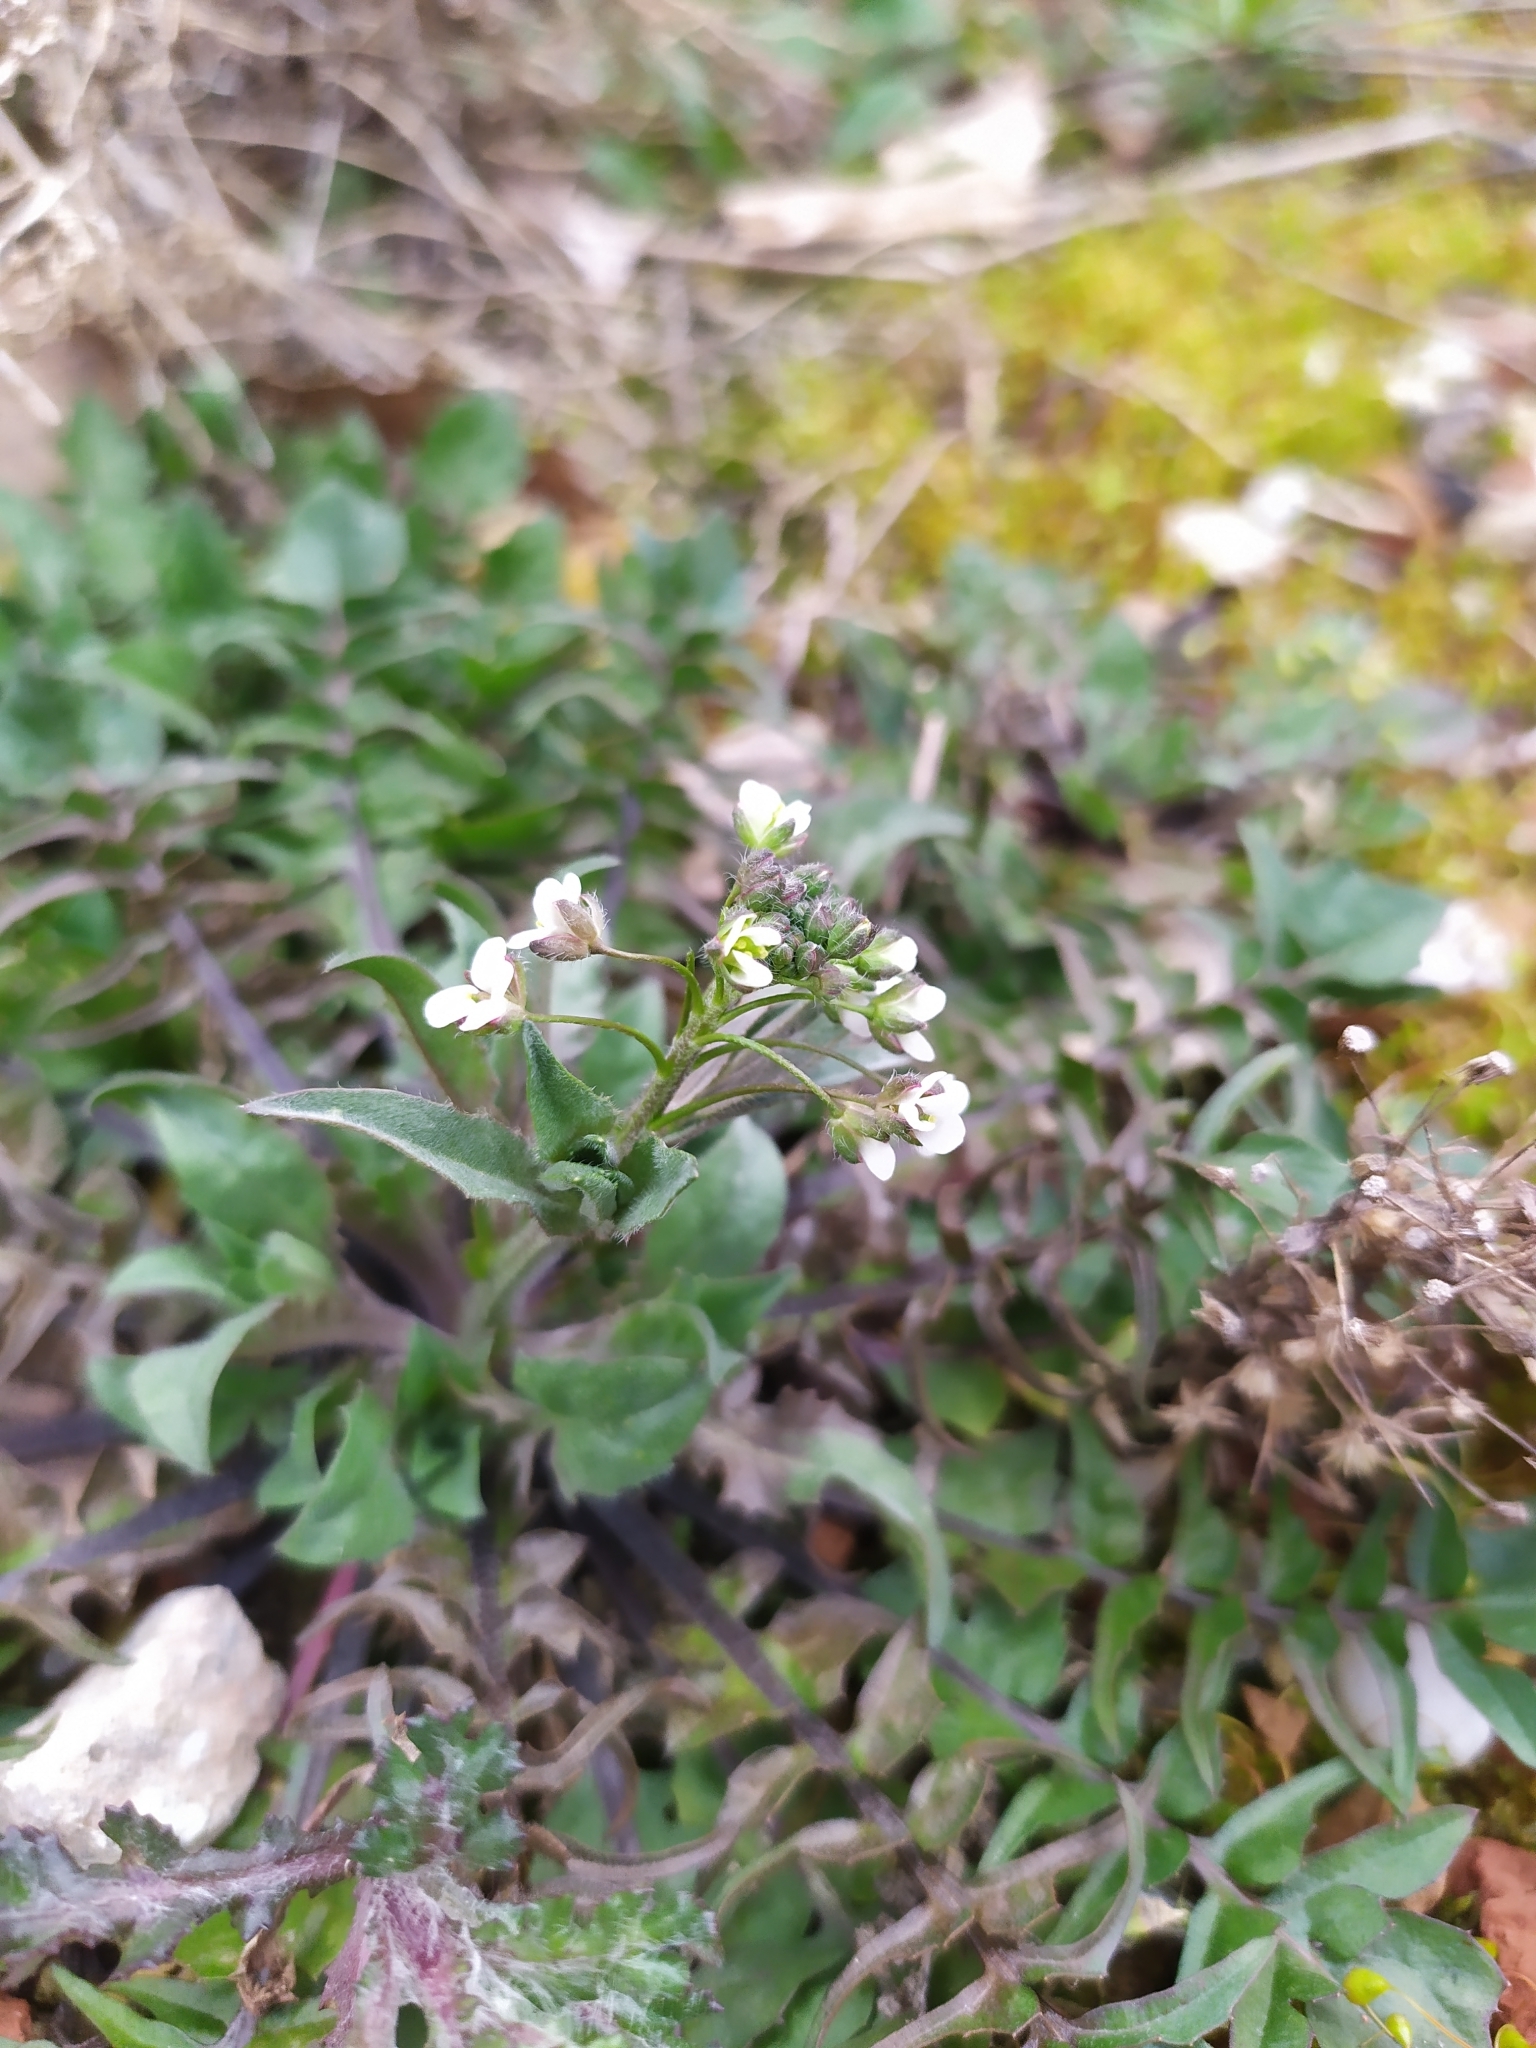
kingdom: Plantae
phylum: Tracheophyta
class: Magnoliopsida
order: Brassicales
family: Brassicaceae
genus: Capsella
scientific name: Capsella bursa-pastoris
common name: Shepherd's purse
